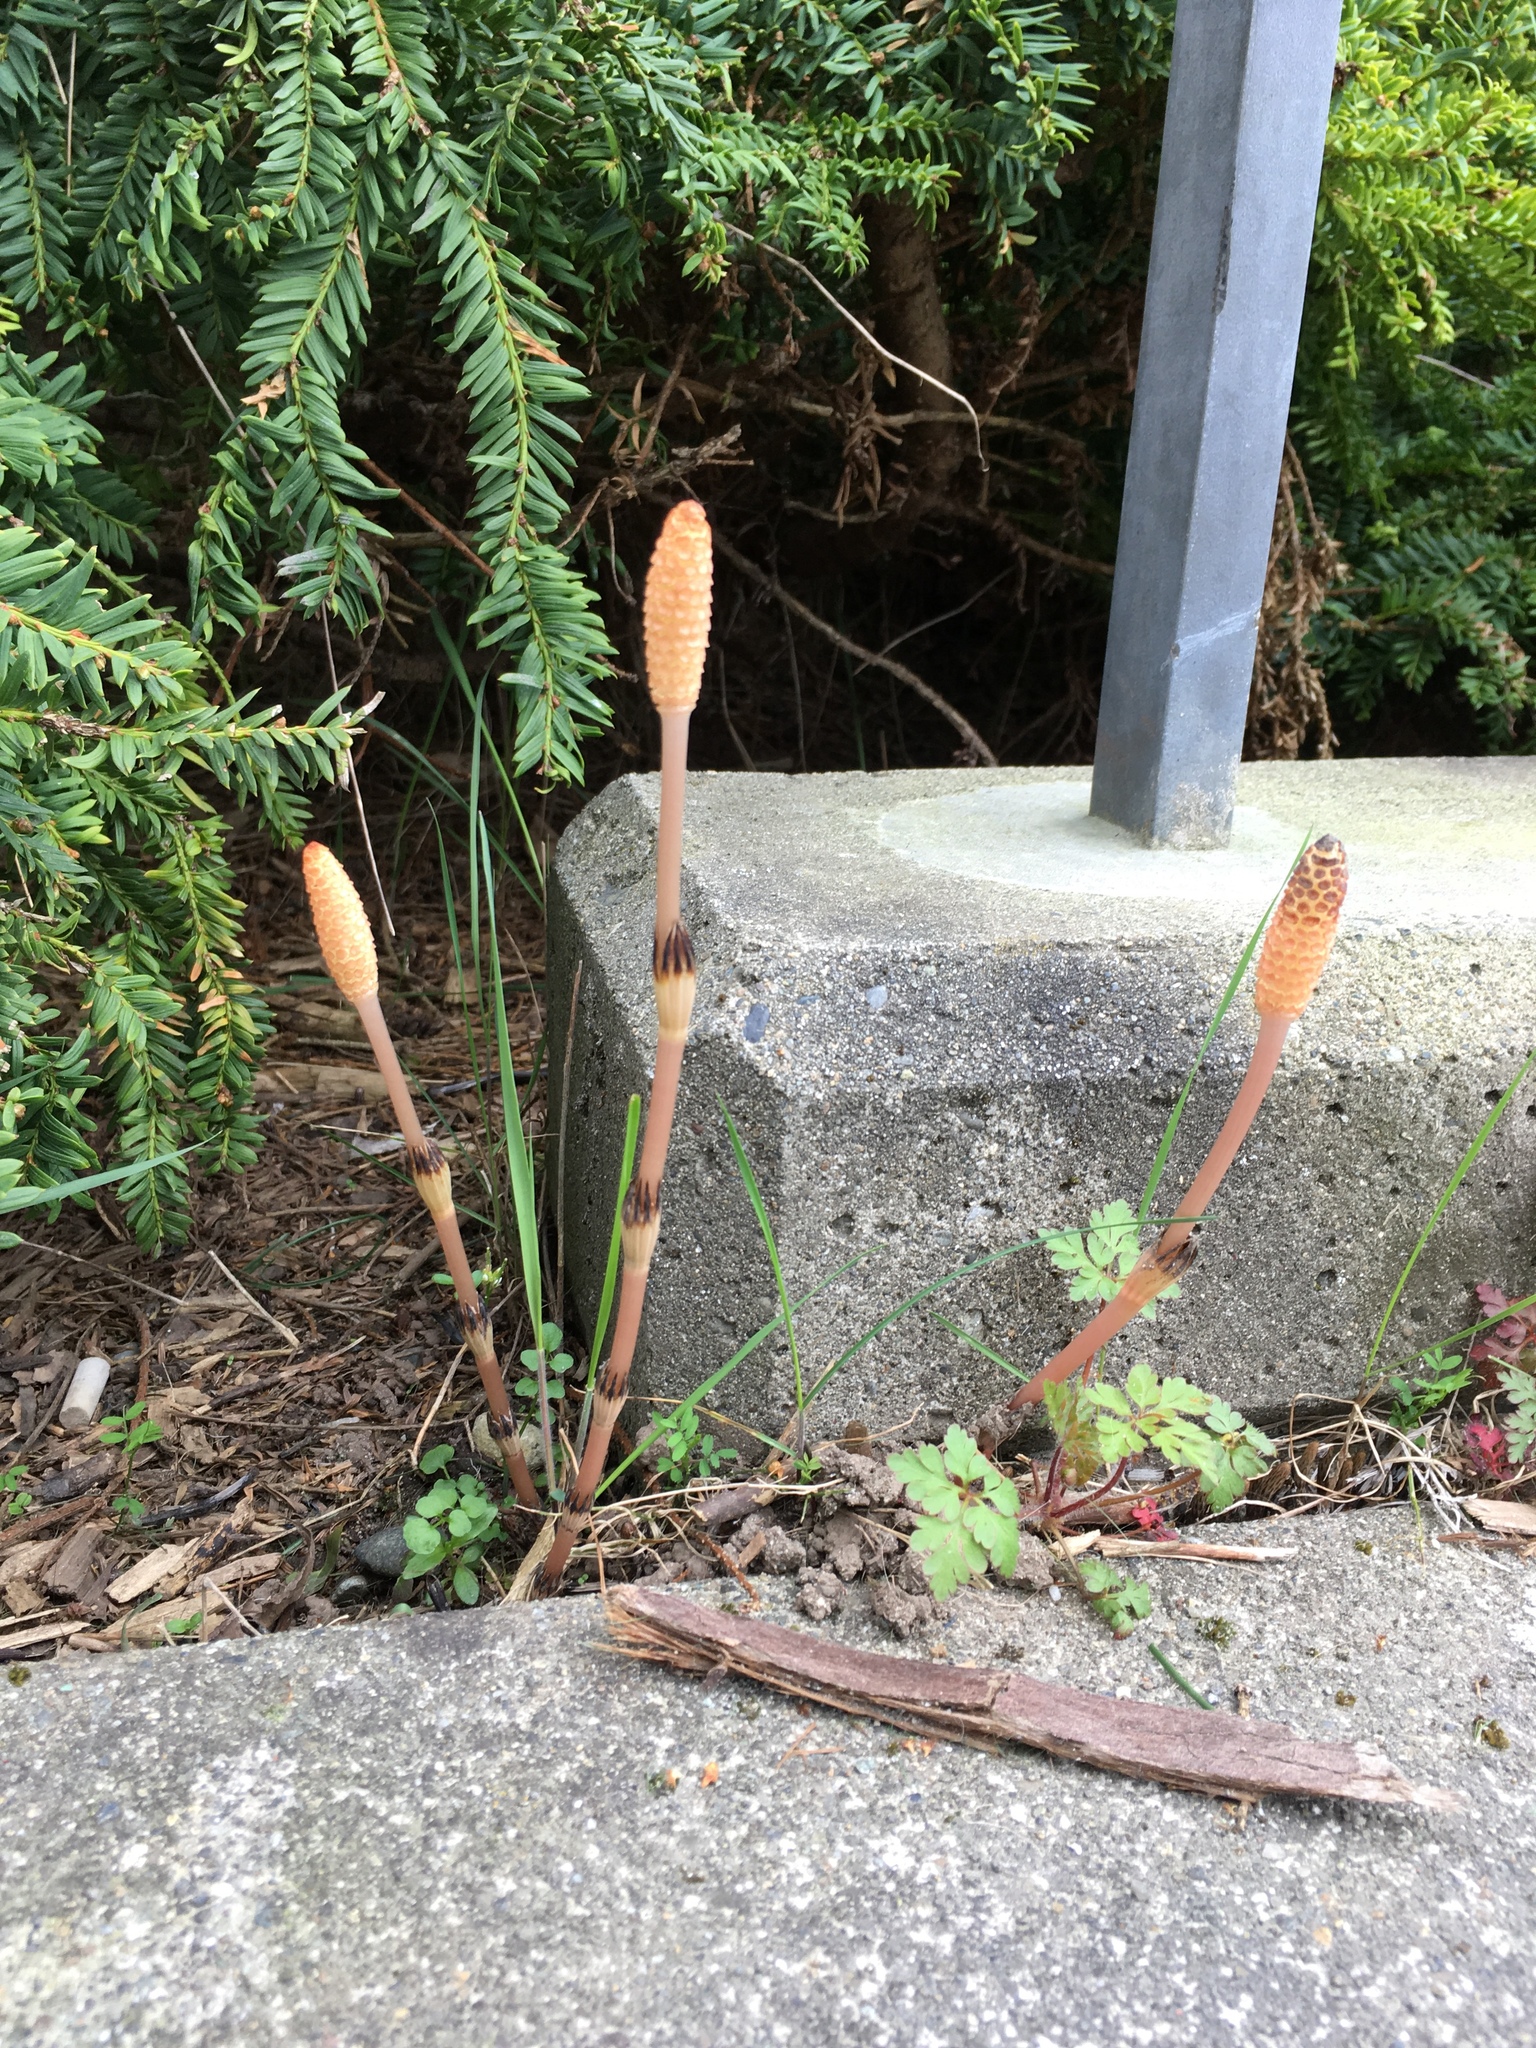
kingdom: Plantae
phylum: Tracheophyta
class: Polypodiopsida
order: Equisetales
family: Equisetaceae
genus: Equisetum
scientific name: Equisetum arvense
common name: Field horsetail
